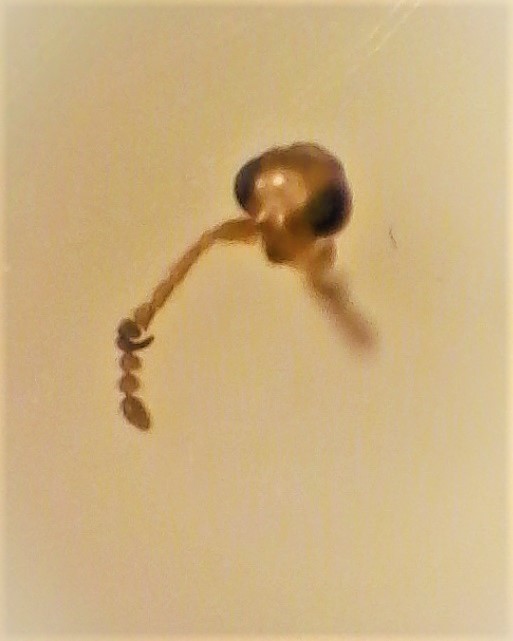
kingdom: Animalia
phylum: Arthropoda
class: Insecta
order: Coleoptera
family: Aderidae
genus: Zenascus
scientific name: Zenascus roberti
